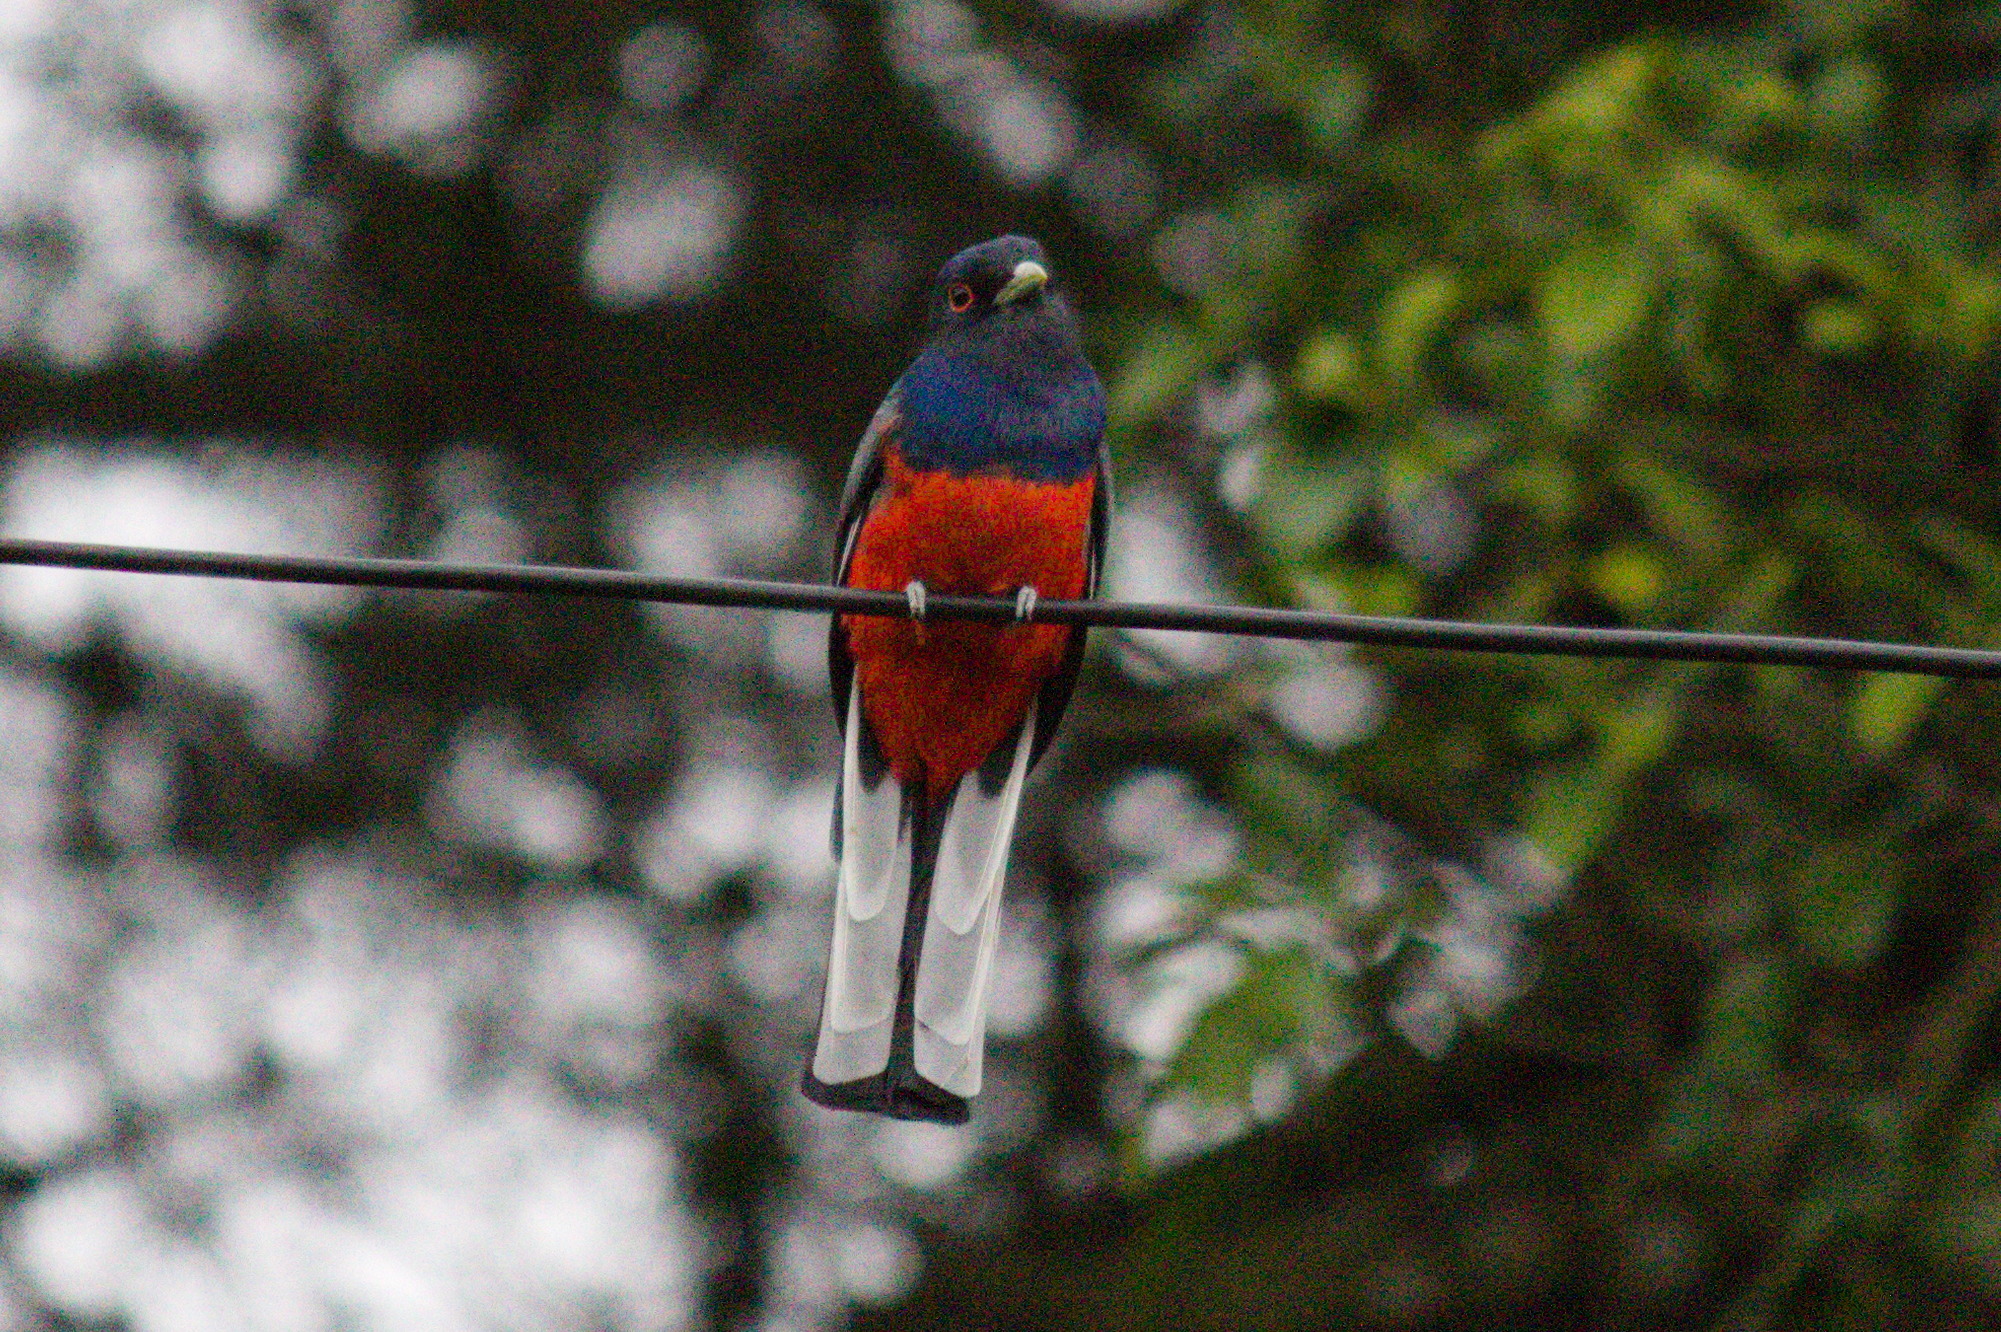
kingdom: Animalia
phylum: Chordata
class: Aves
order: Trogoniformes
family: Trogonidae
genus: Trogon
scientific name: Trogon surrucura
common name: Surucua trogon
